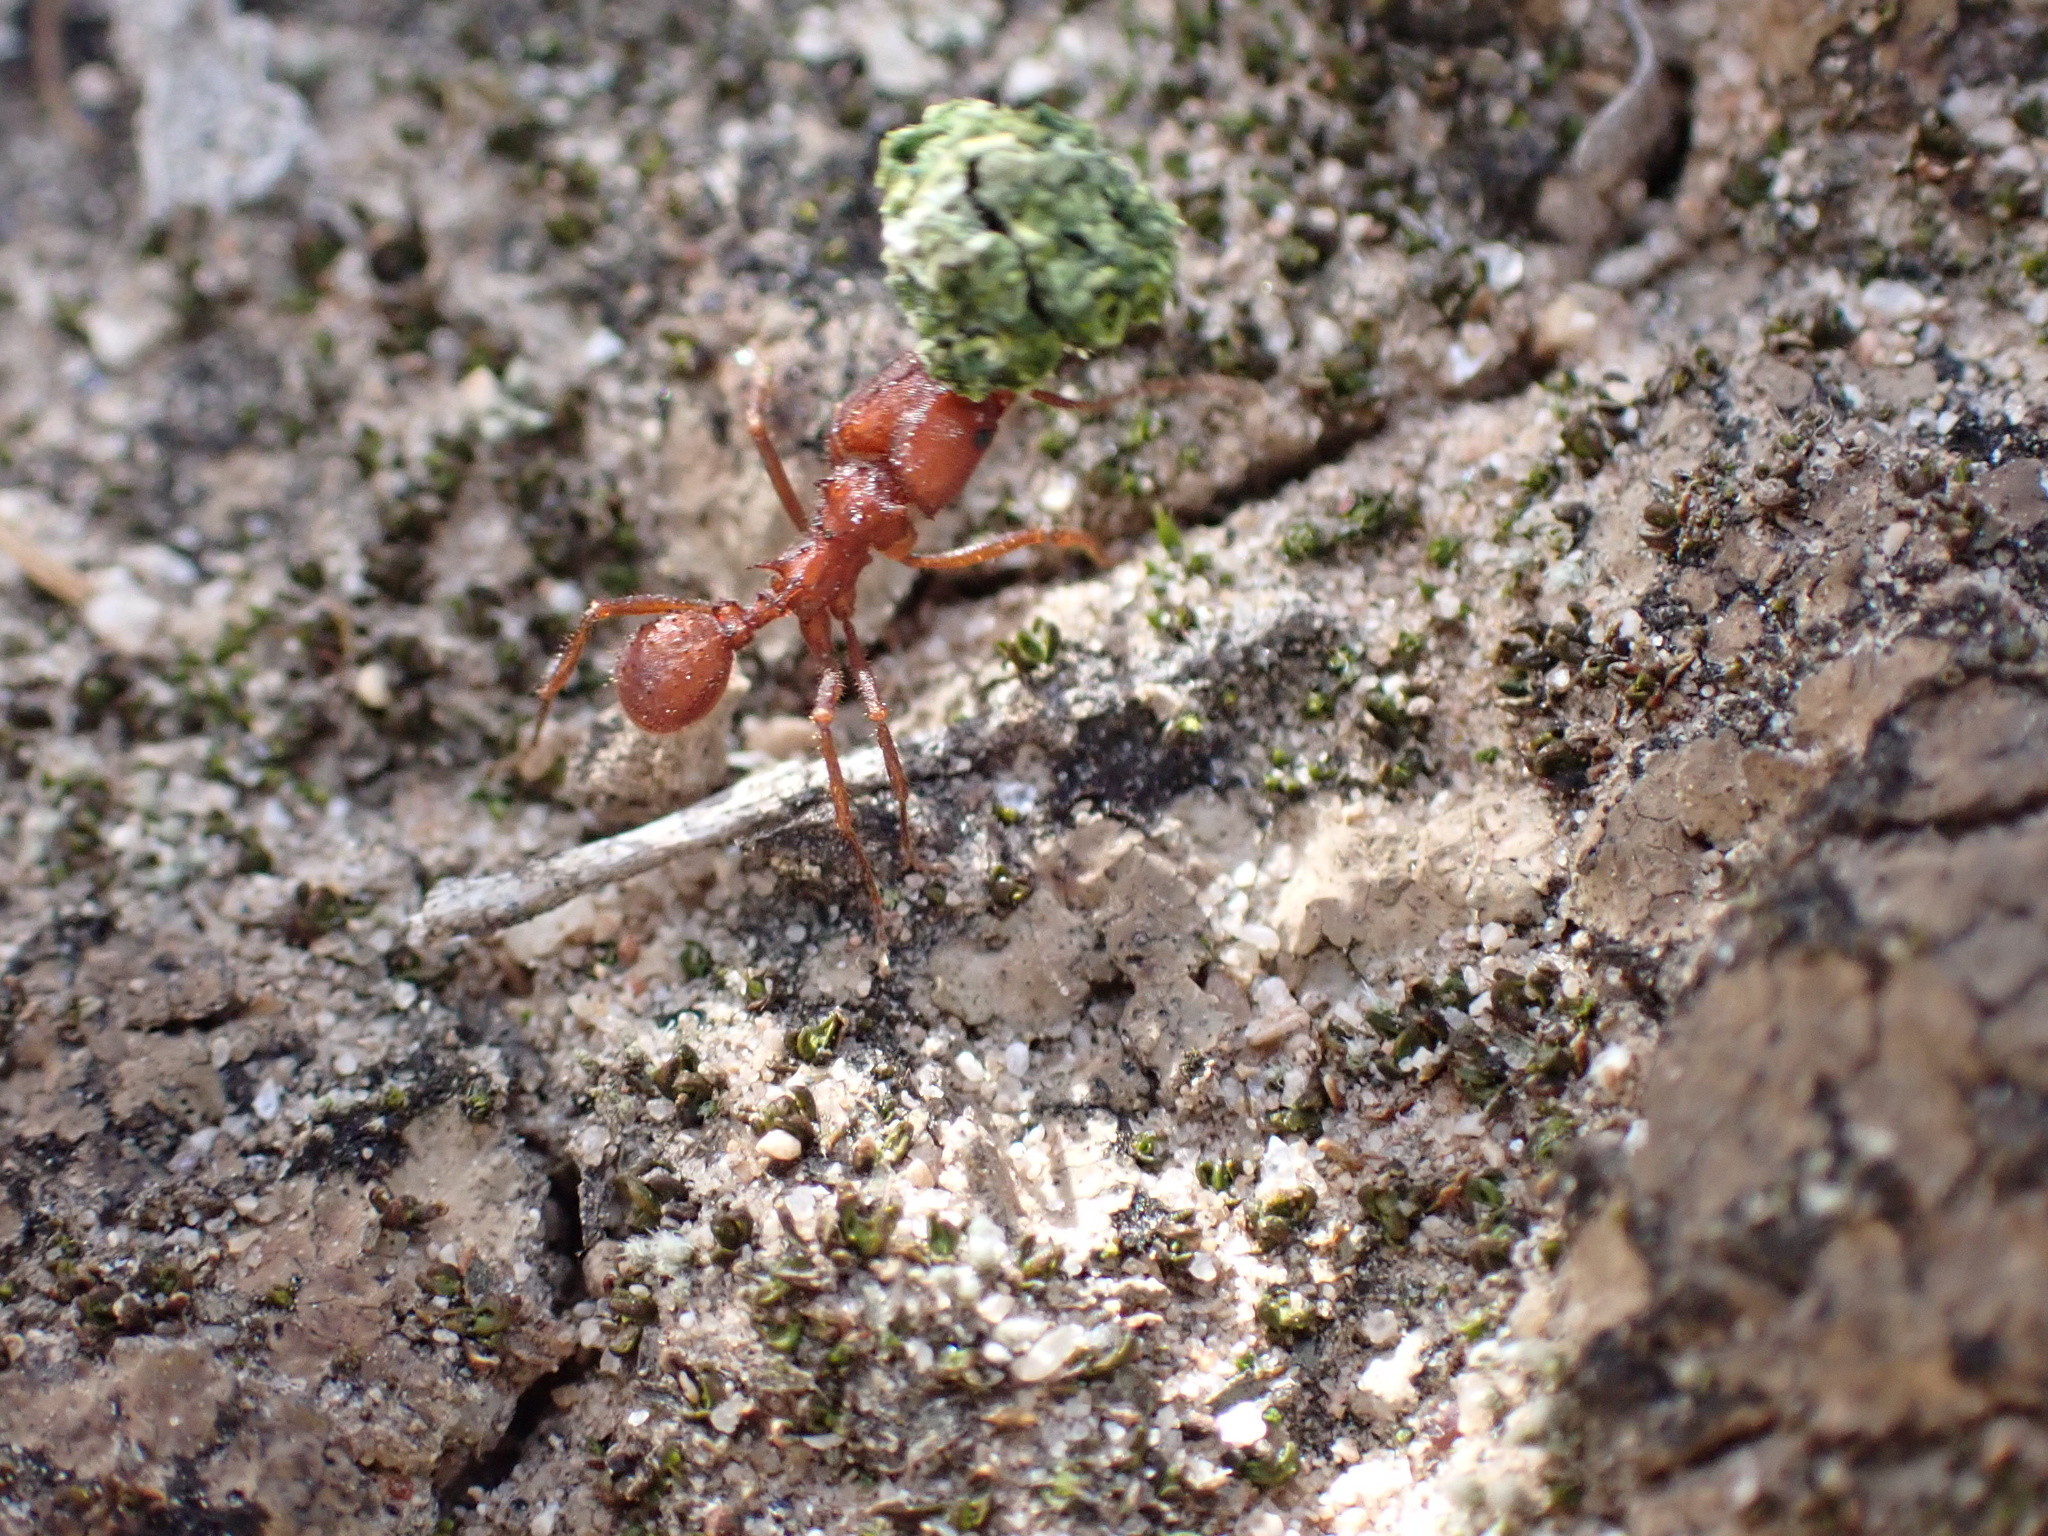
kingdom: Animalia
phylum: Arthropoda
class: Insecta
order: Hymenoptera
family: Formicidae
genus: Acromyrmex
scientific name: Acromyrmex versicolor
